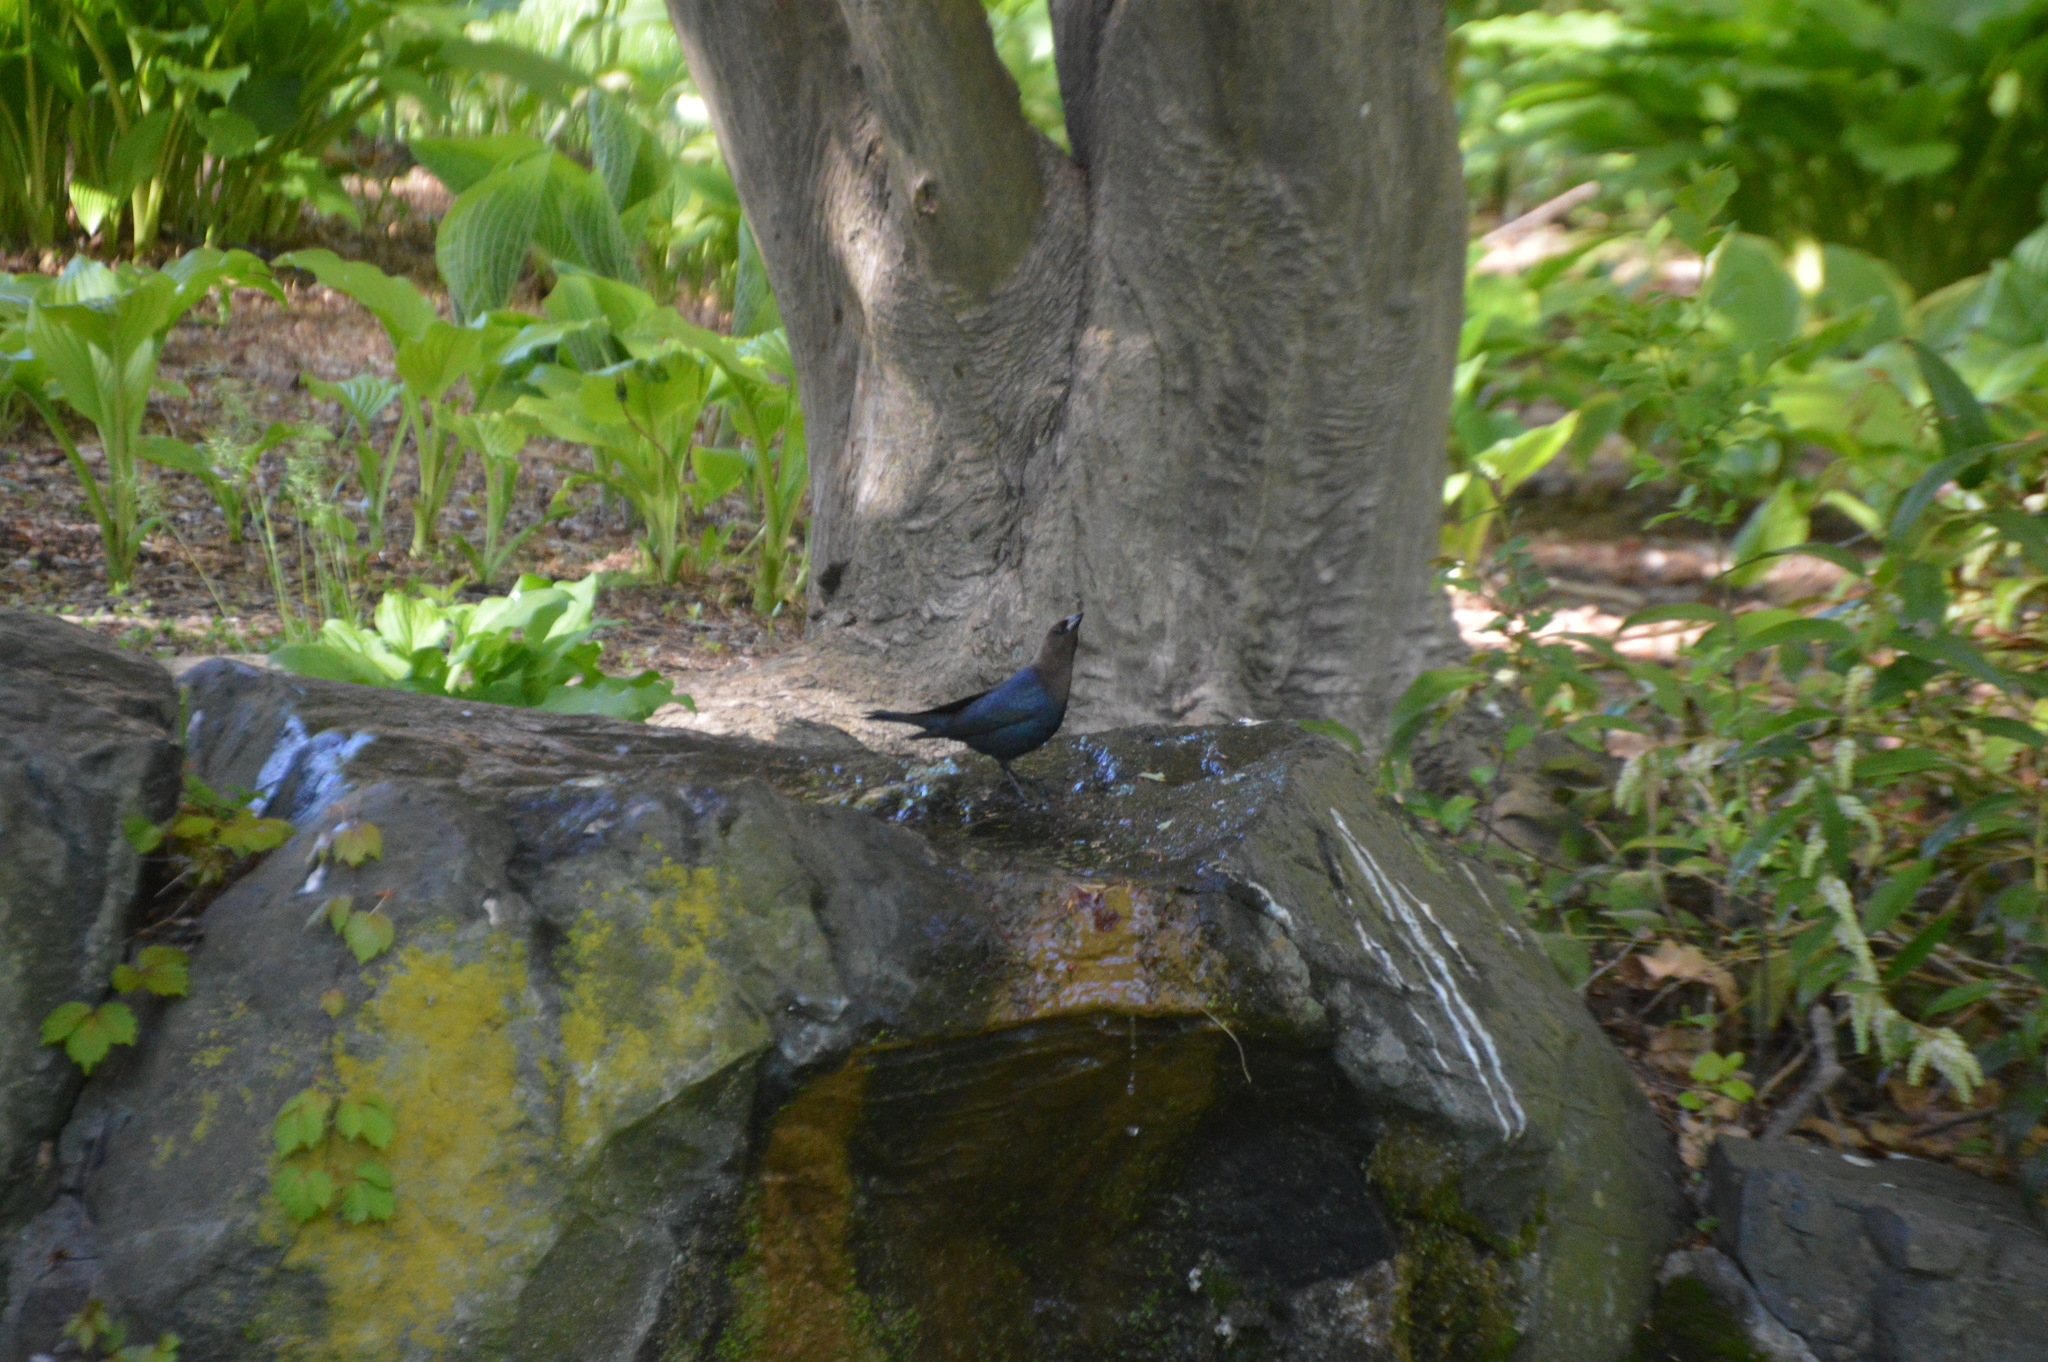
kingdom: Animalia
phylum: Chordata
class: Aves
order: Passeriformes
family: Icteridae
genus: Molothrus
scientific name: Molothrus ater
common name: Brown-headed cowbird
